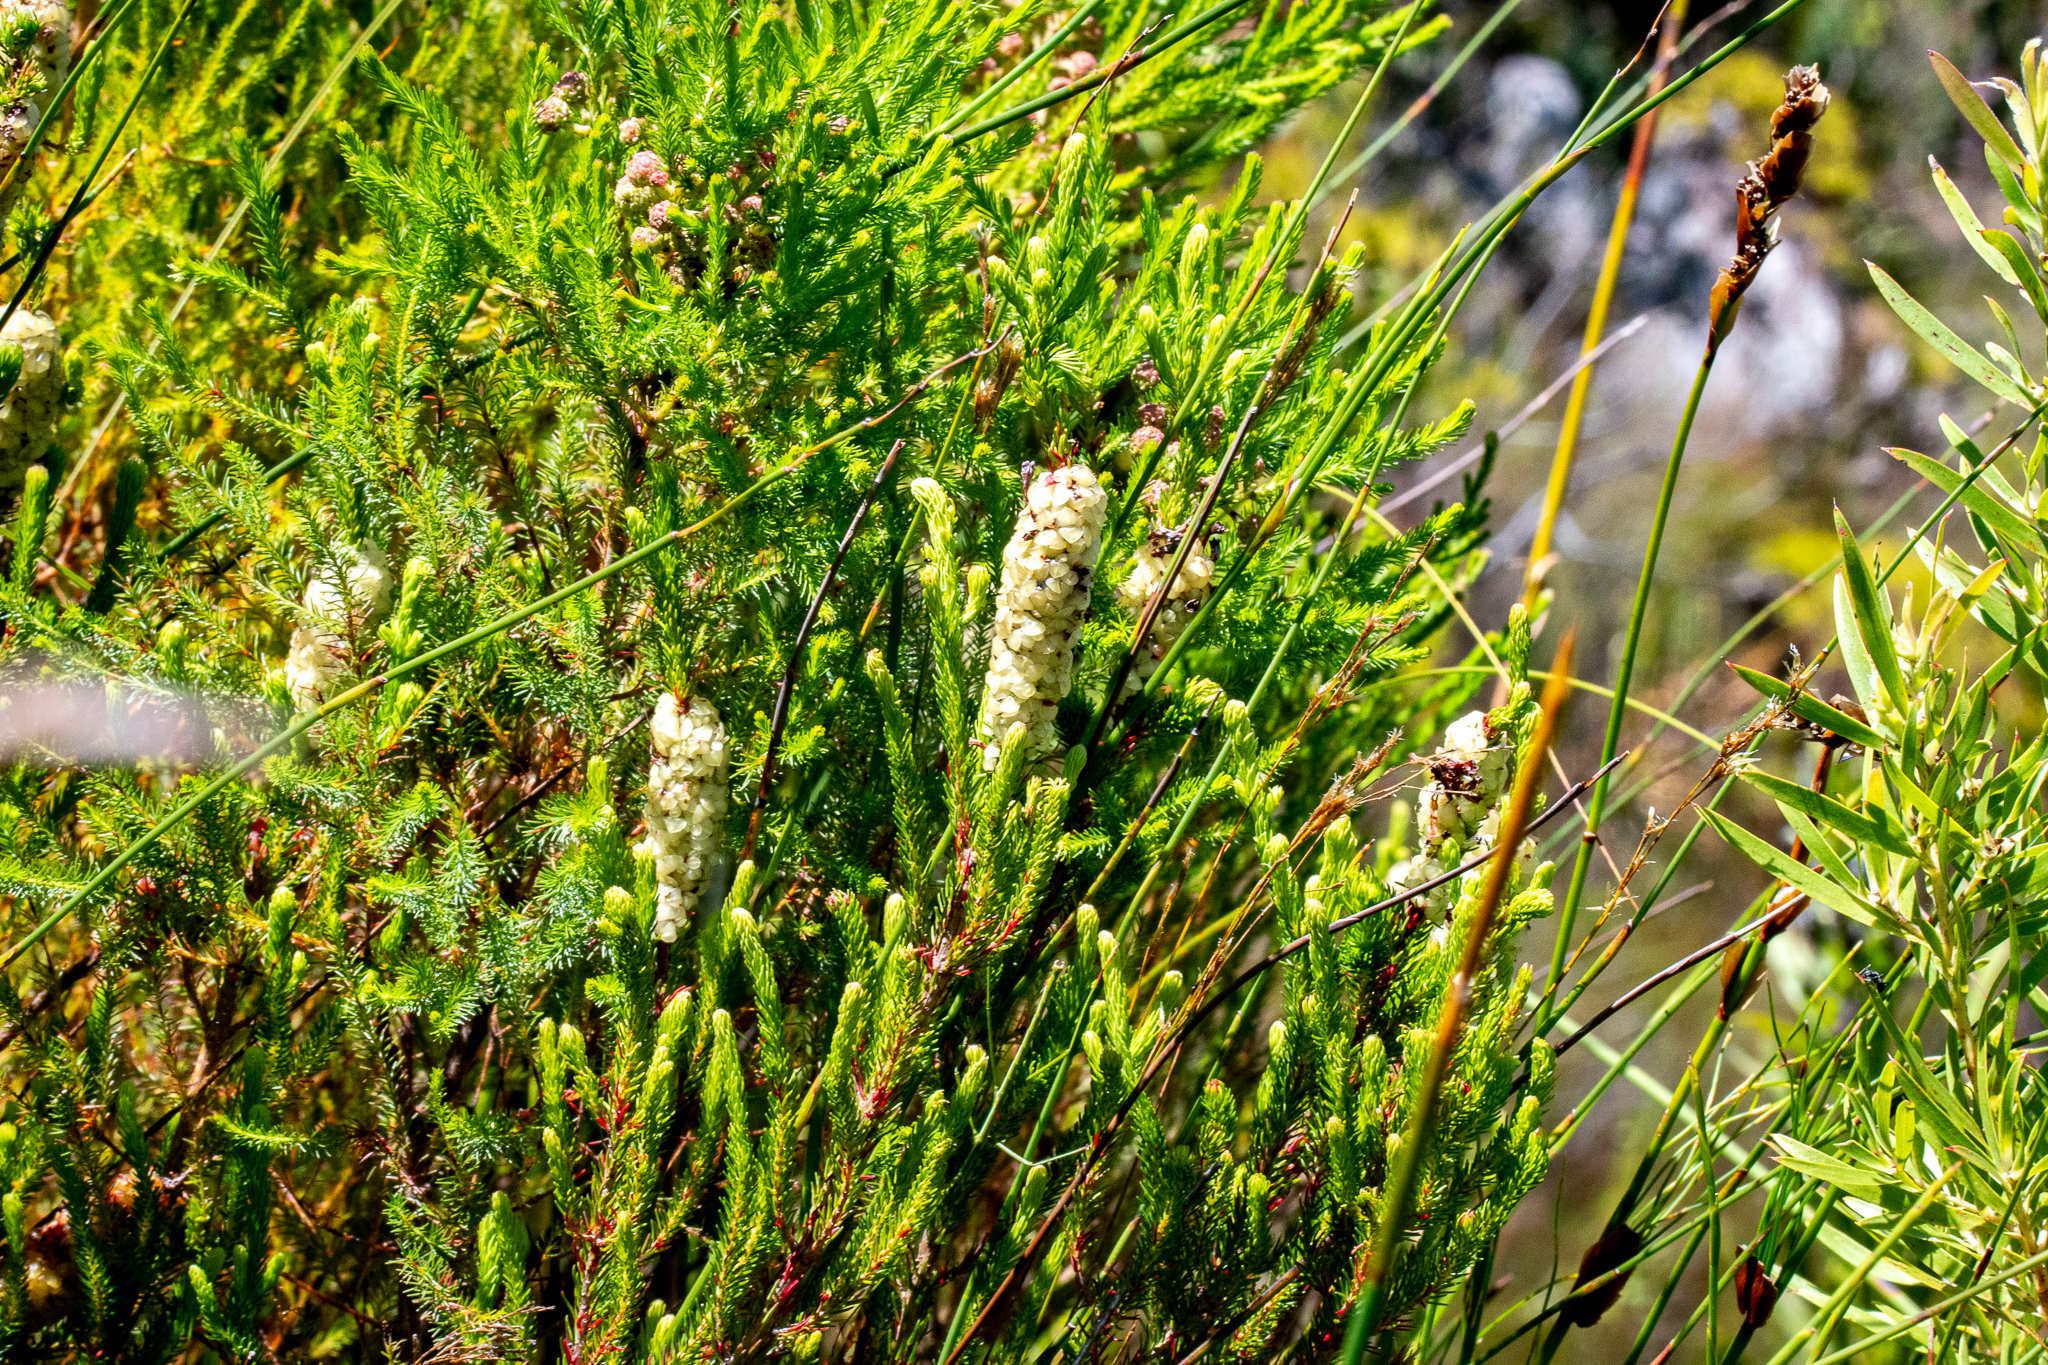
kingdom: Plantae
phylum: Tracheophyta
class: Magnoliopsida
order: Ericales
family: Ericaceae
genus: Erica
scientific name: Erica sessiliflora
